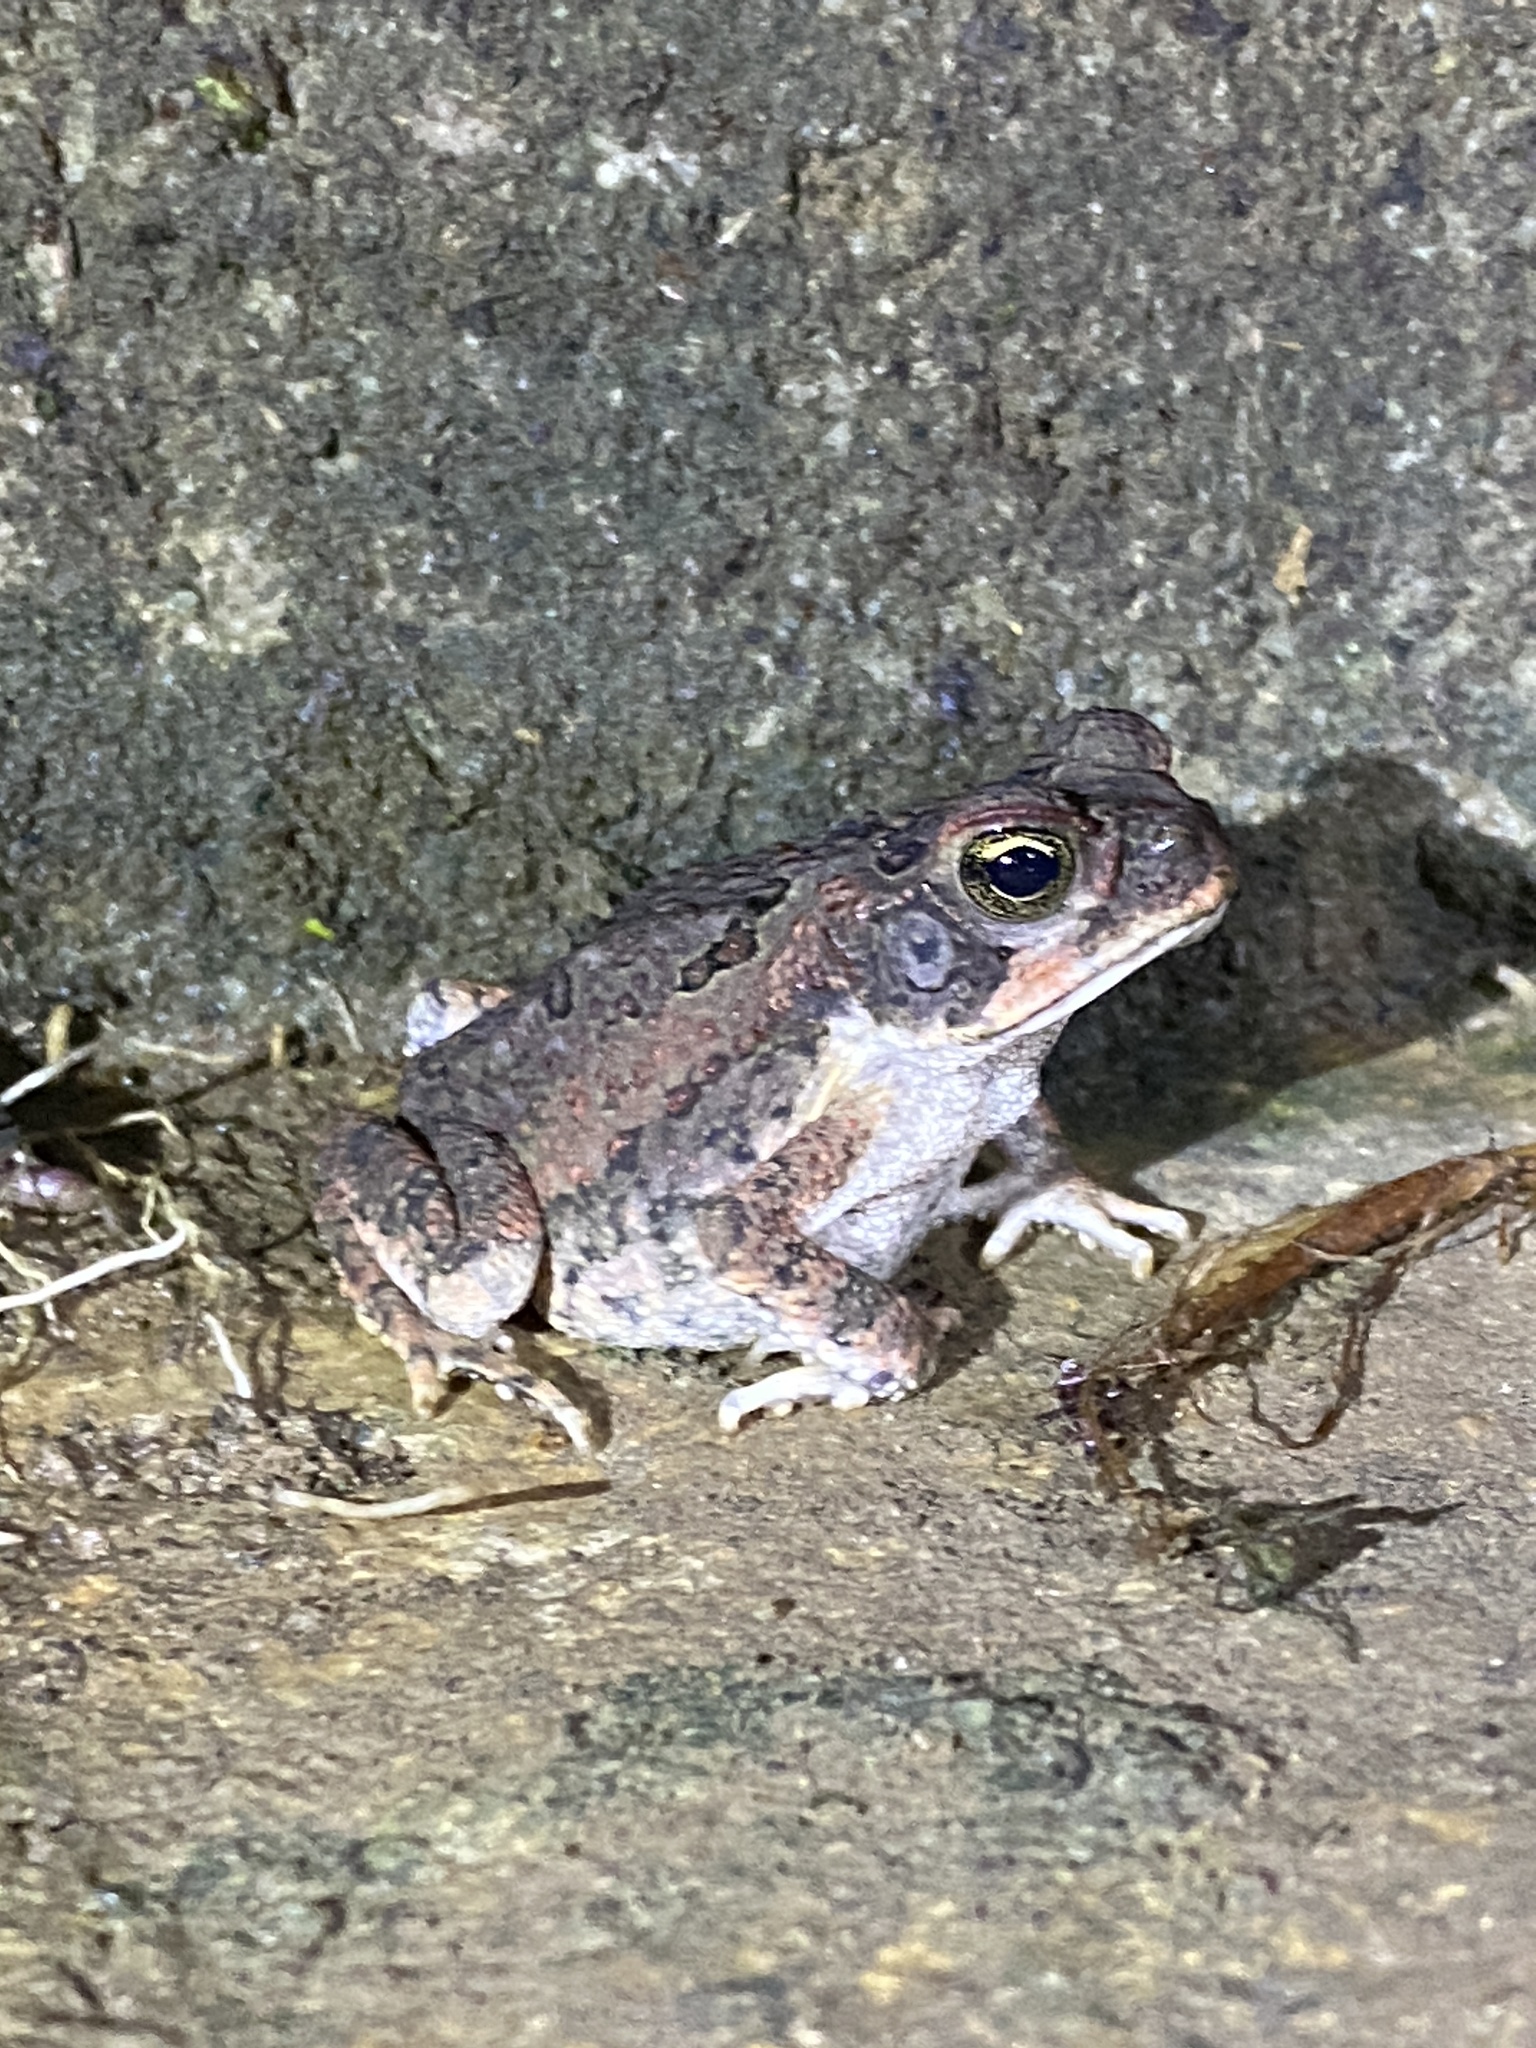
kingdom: Animalia
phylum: Chordata
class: Amphibia
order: Anura
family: Bufonidae
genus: Rhinella
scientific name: Rhinella marina
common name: Cane toad
